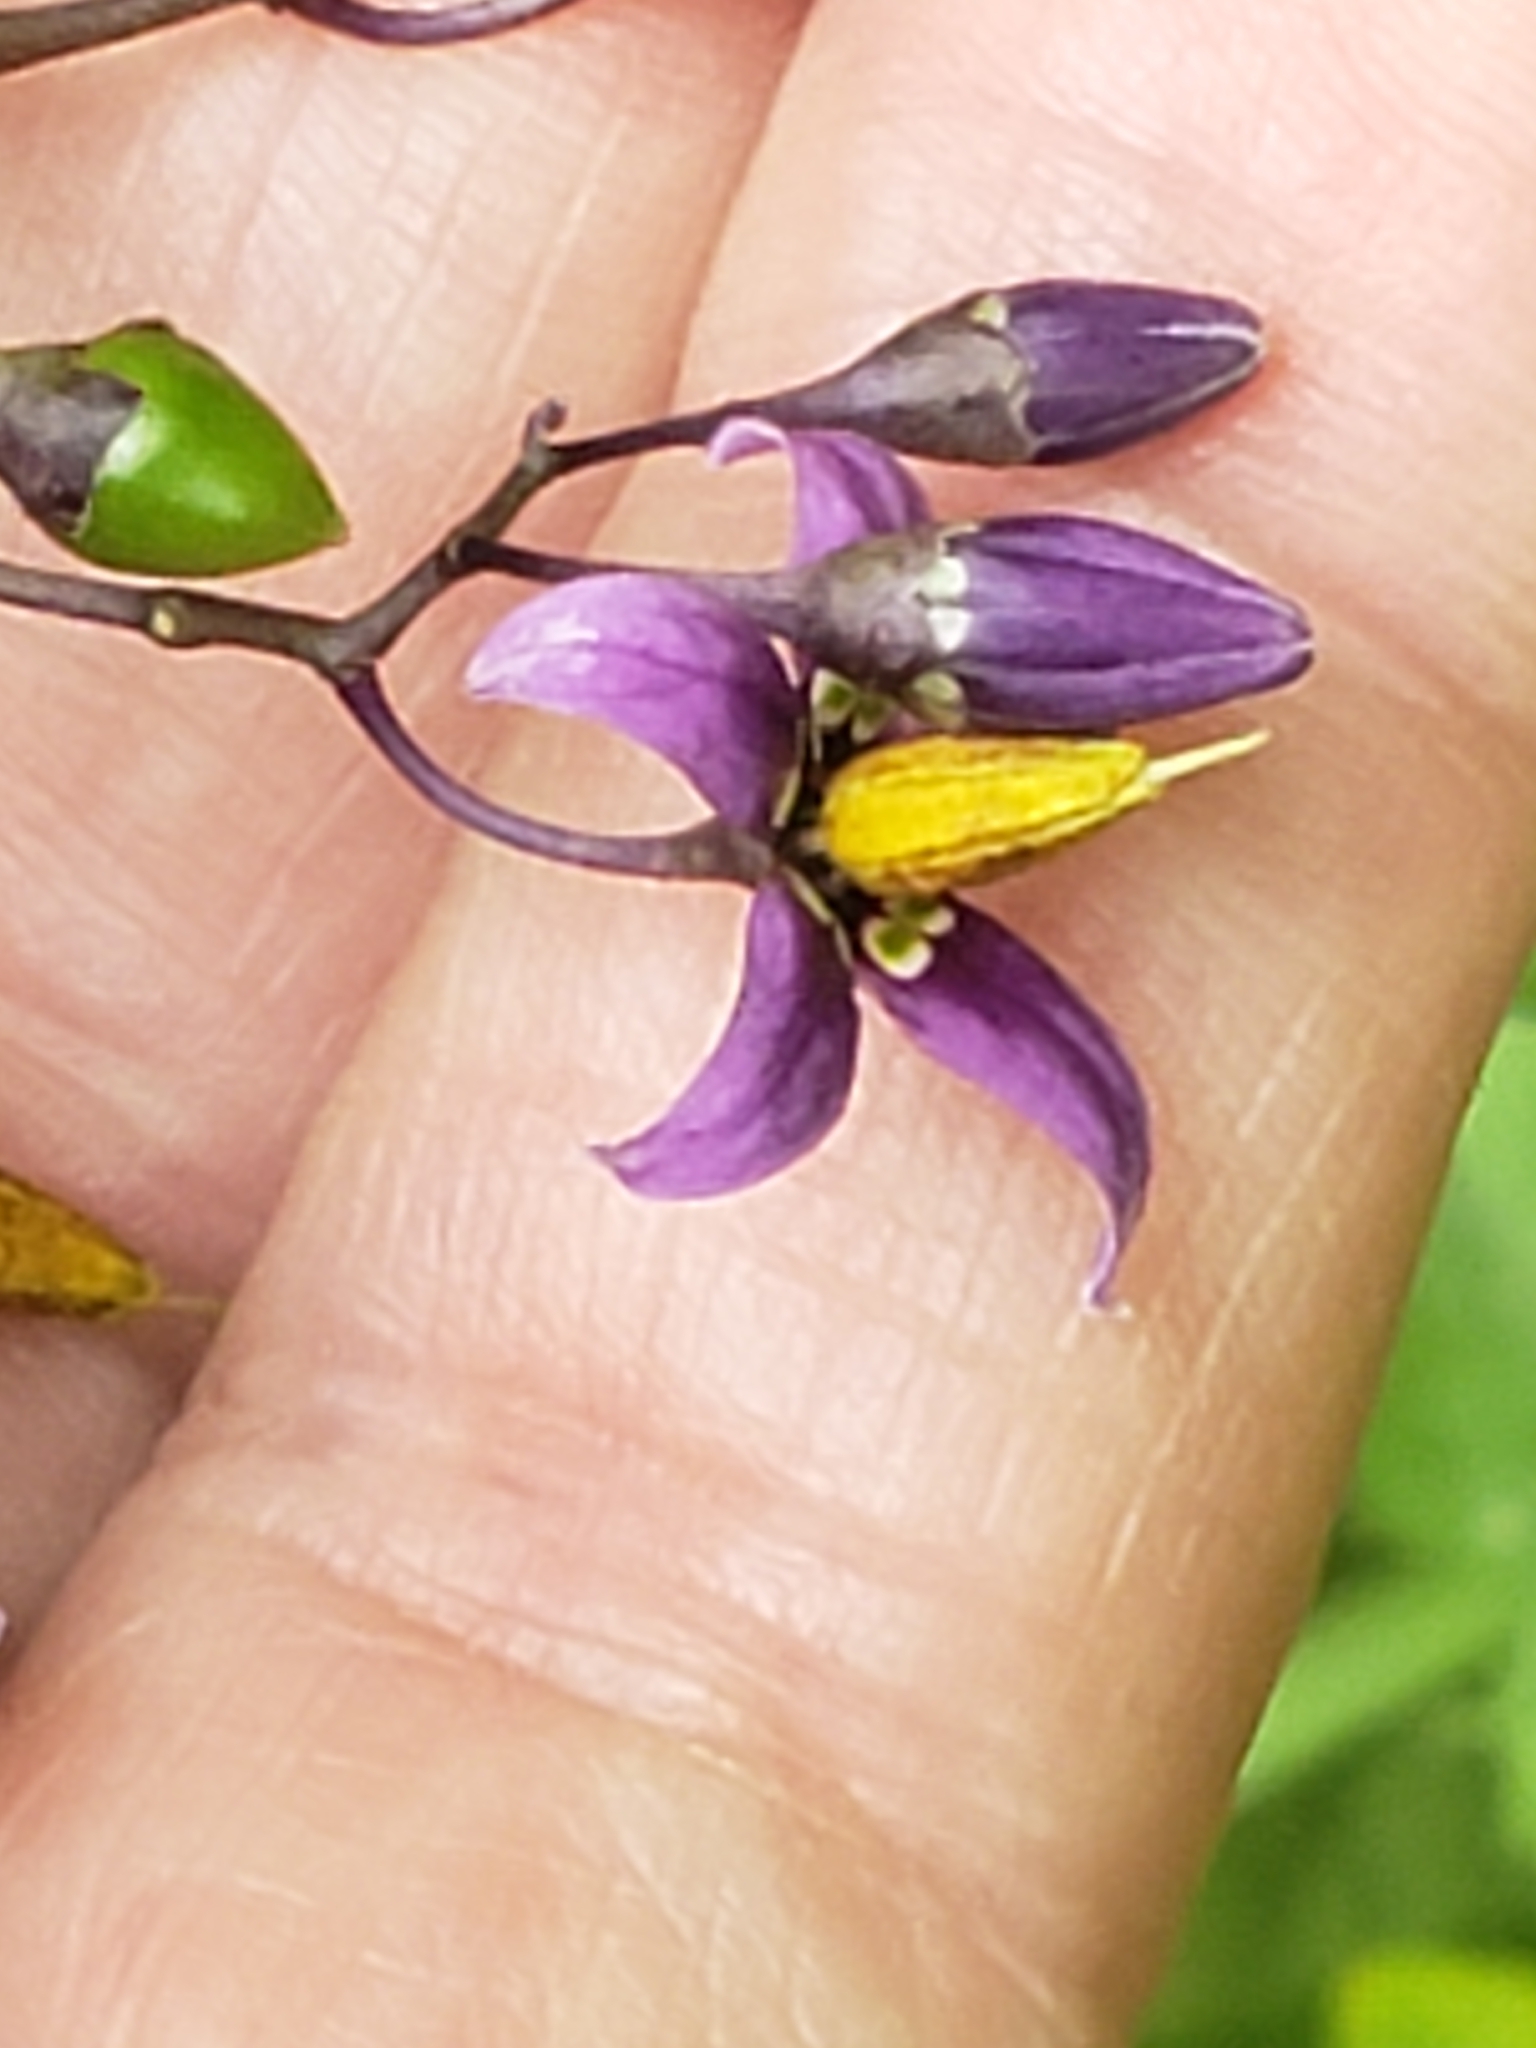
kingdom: Plantae
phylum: Tracheophyta
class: Magnoliopsida
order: Solanales
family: Solanaceae
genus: Solanum
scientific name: Solanum dulcamara
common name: Climbing nightshade
